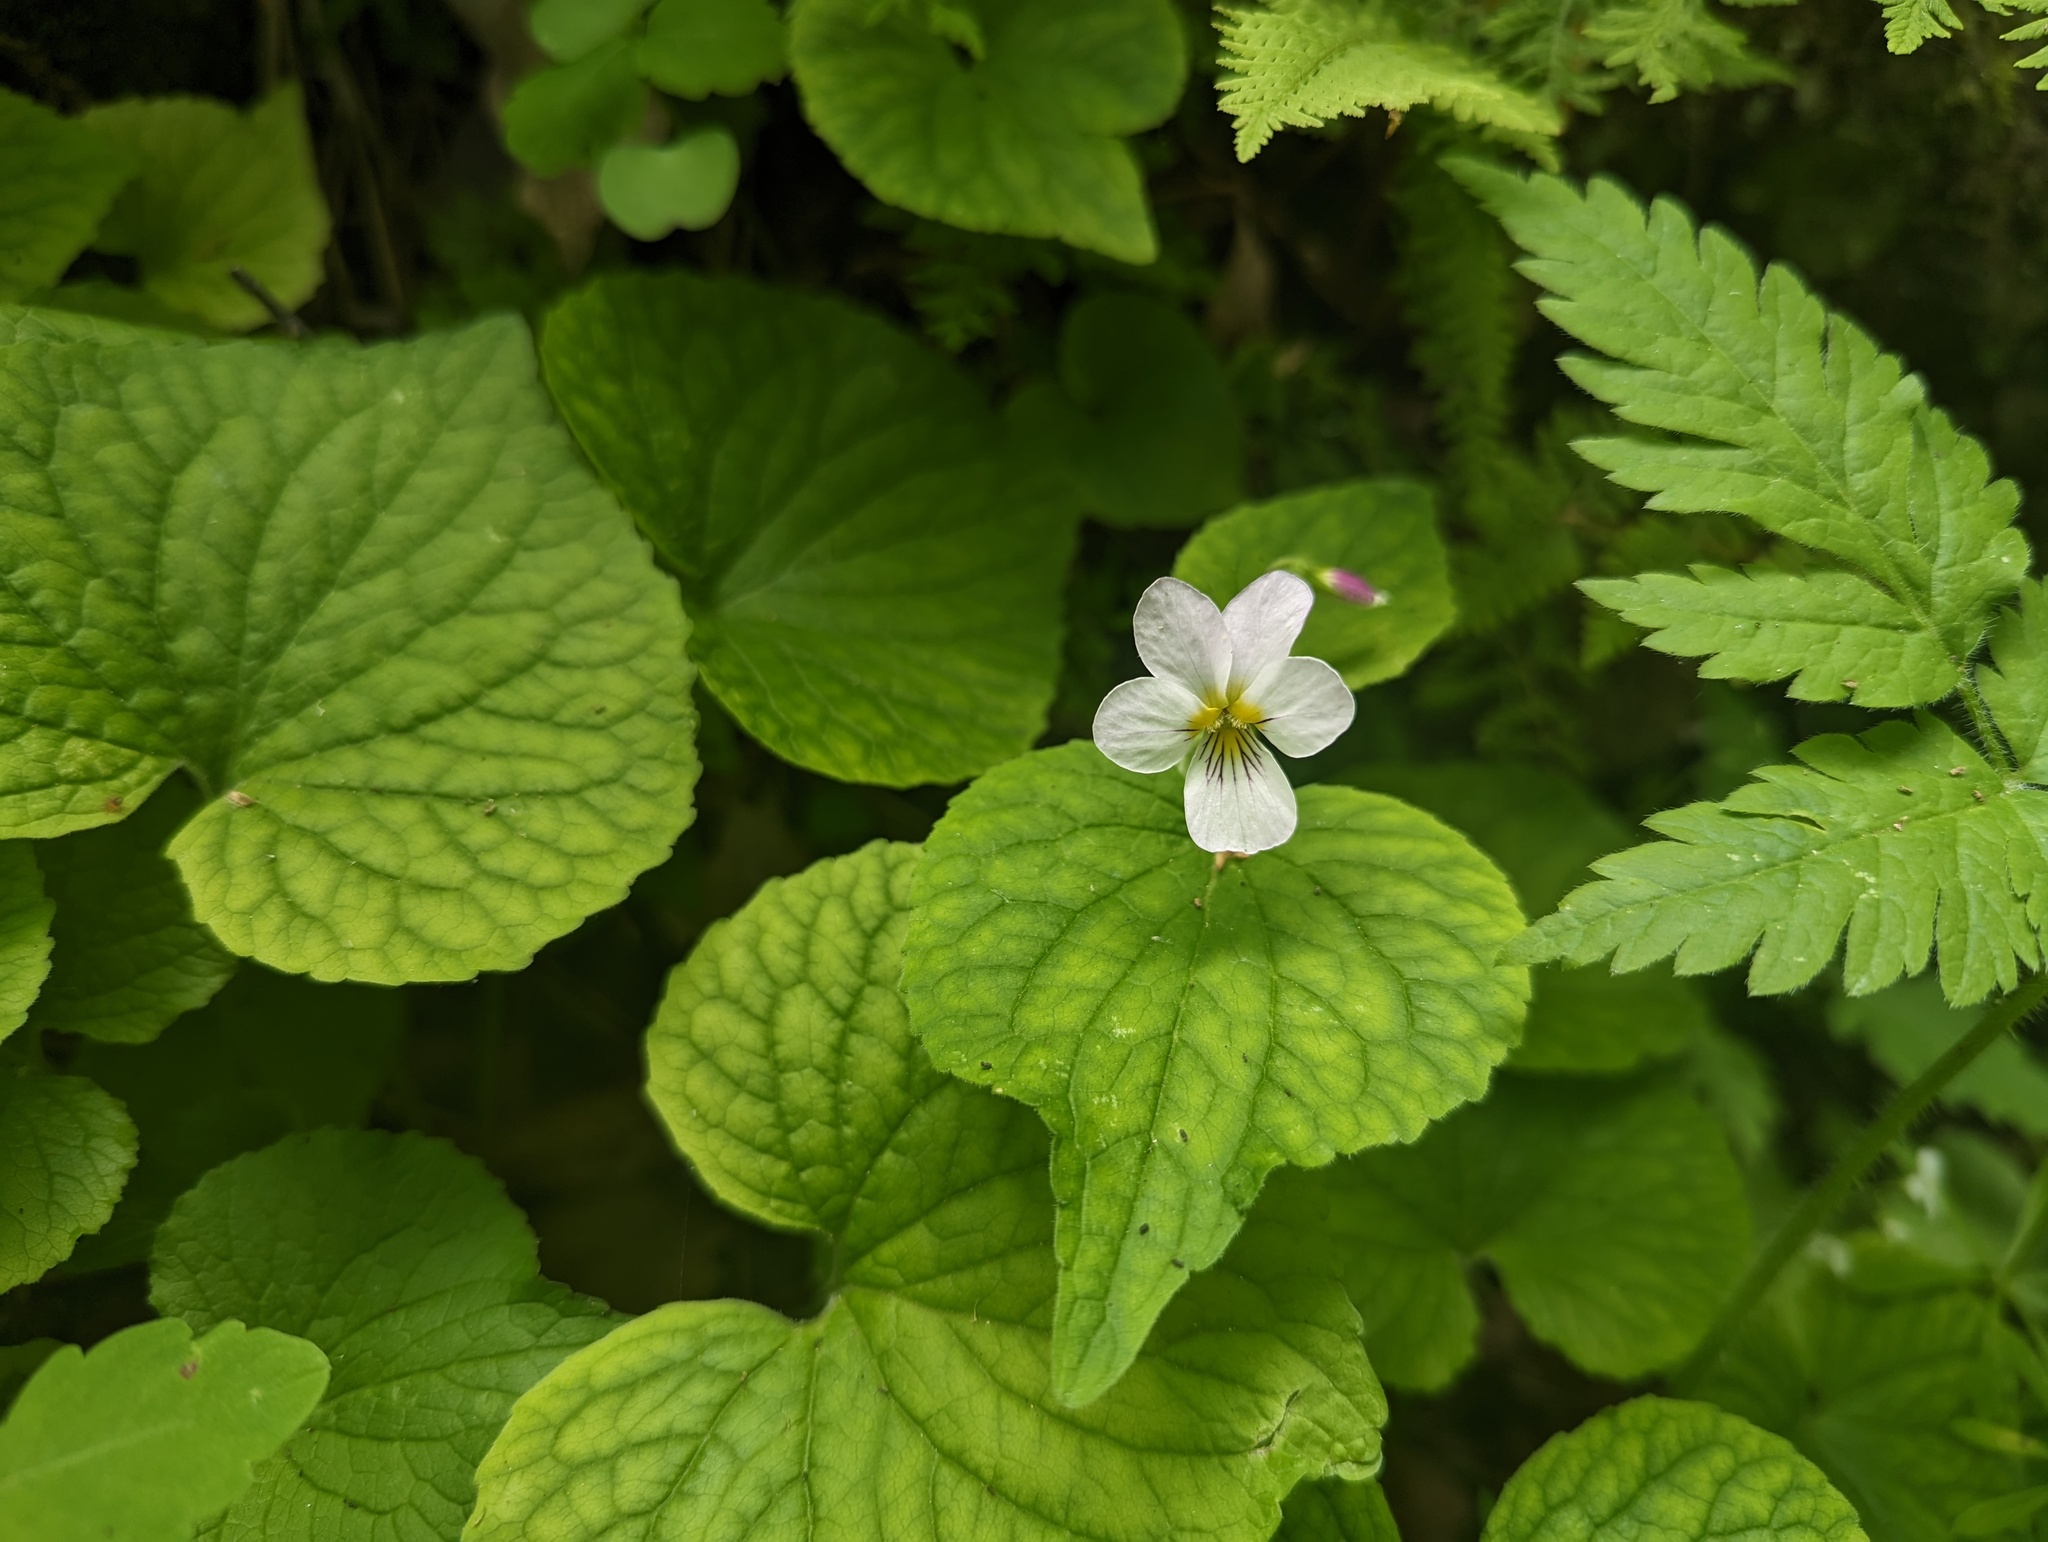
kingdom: Plantae
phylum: Tracheophyta
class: Magnoliopsida
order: Malpighiales
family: Violaceae
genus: Viola
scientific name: Viola rugulosa
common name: Creeping-root violet
